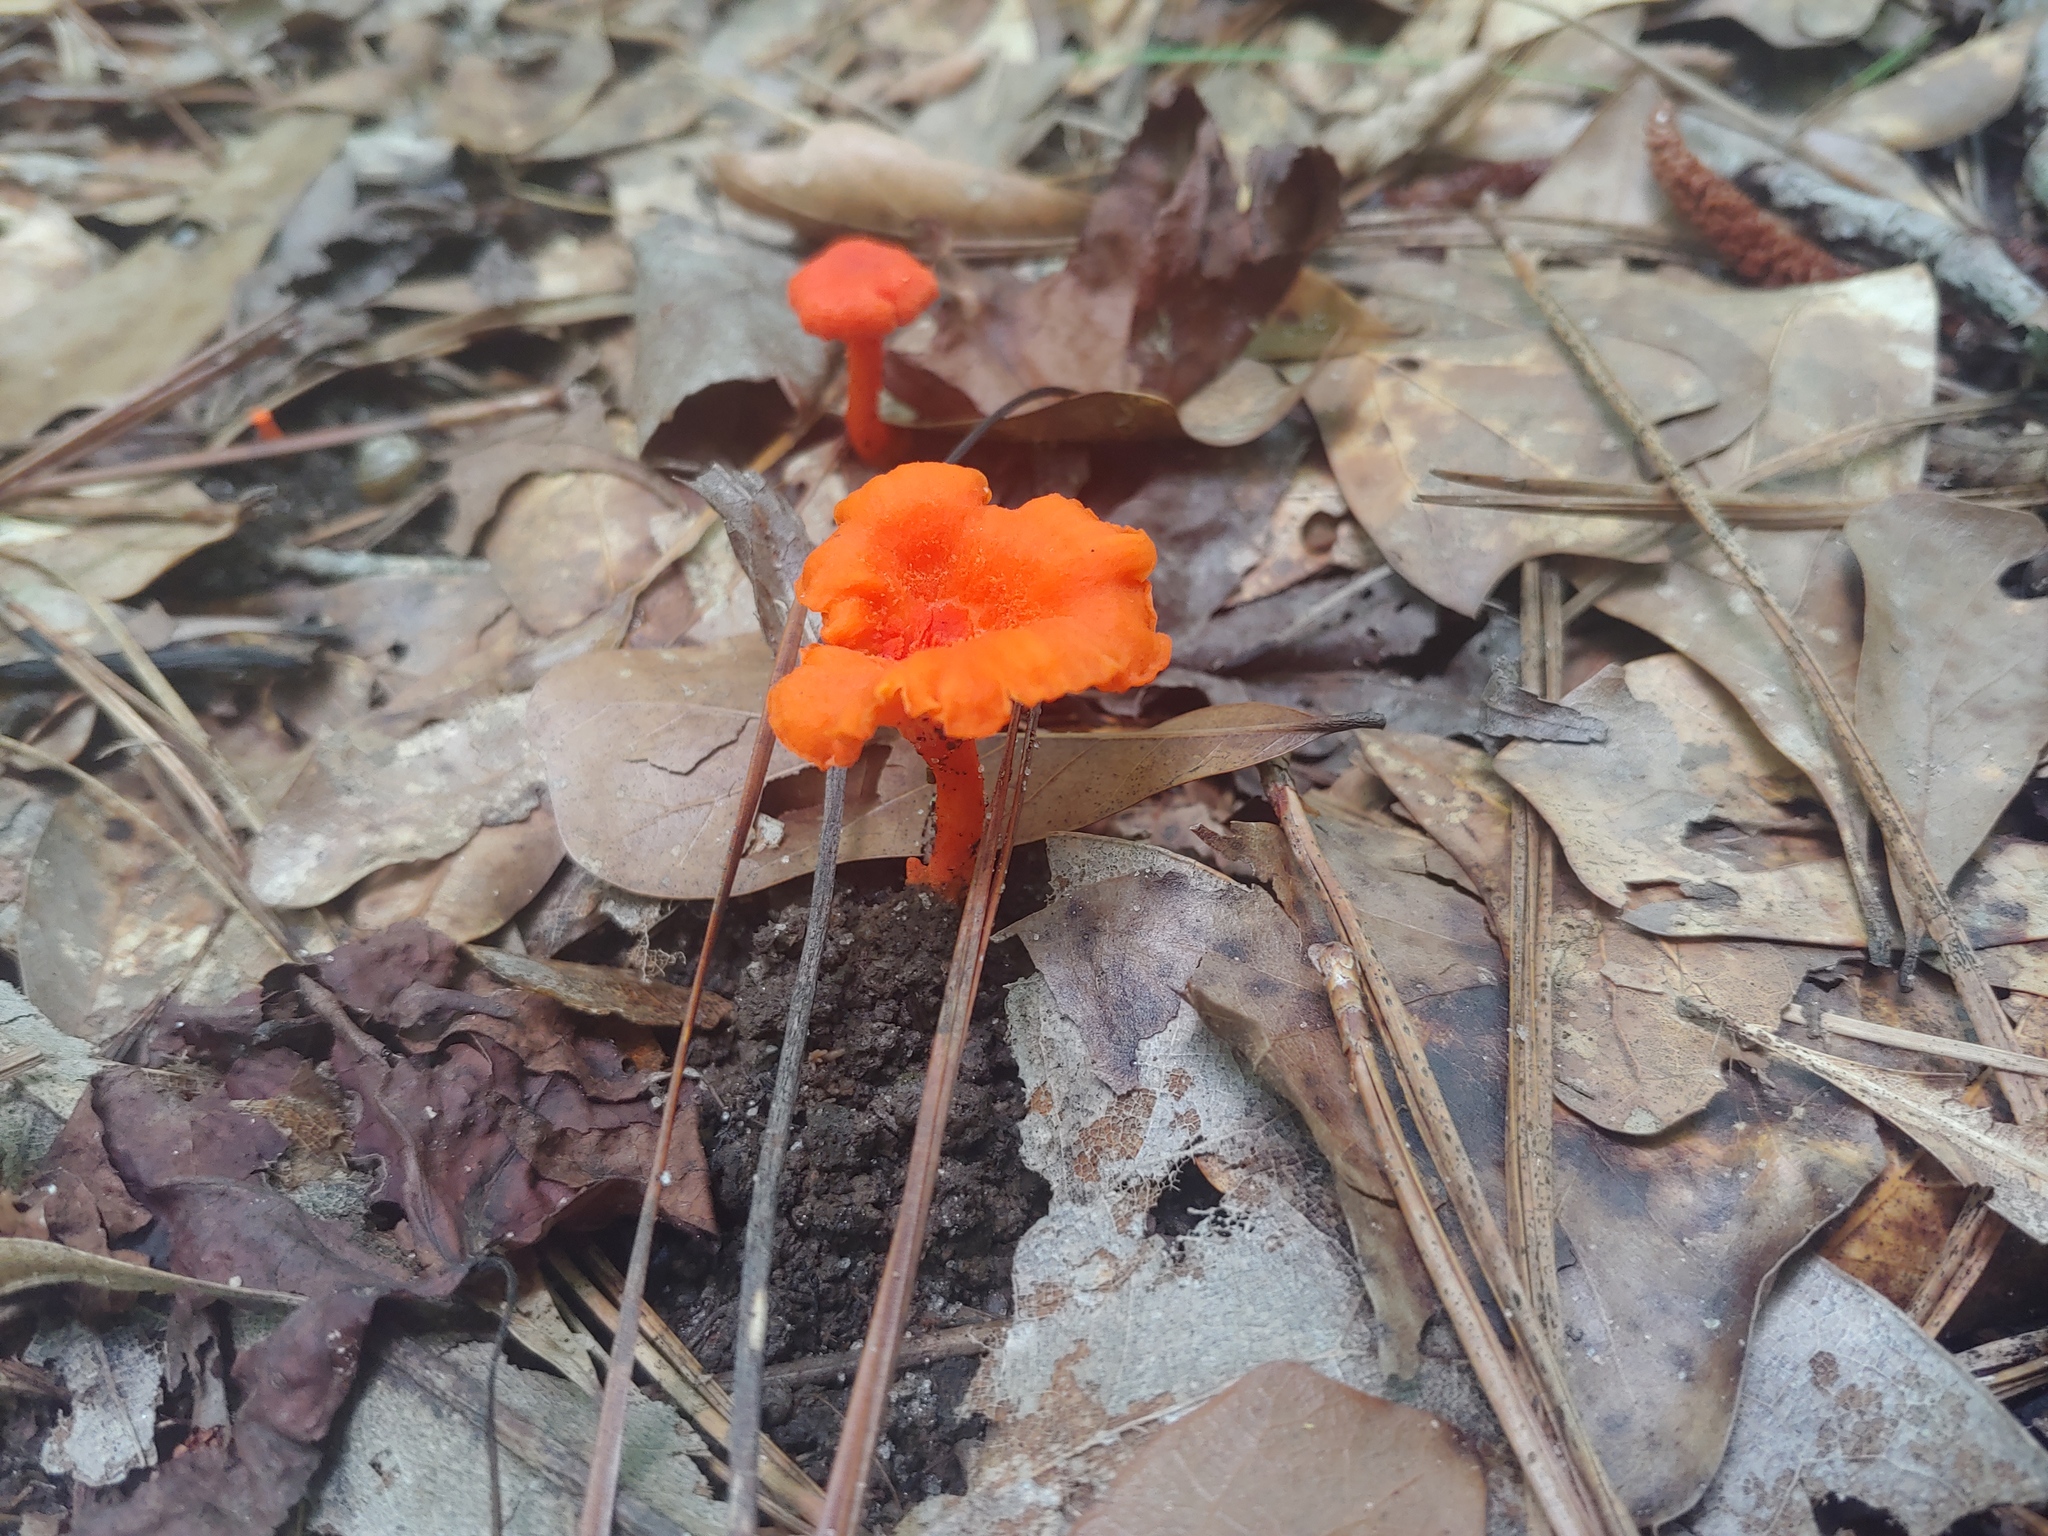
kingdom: Fungi
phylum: Basidiomycota
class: Agaricomycetes
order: Cantharellales
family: Hydnaceae
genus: Cantharellus
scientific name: Cantharellus cinnabarinus
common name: Cinnabar chanterelle
